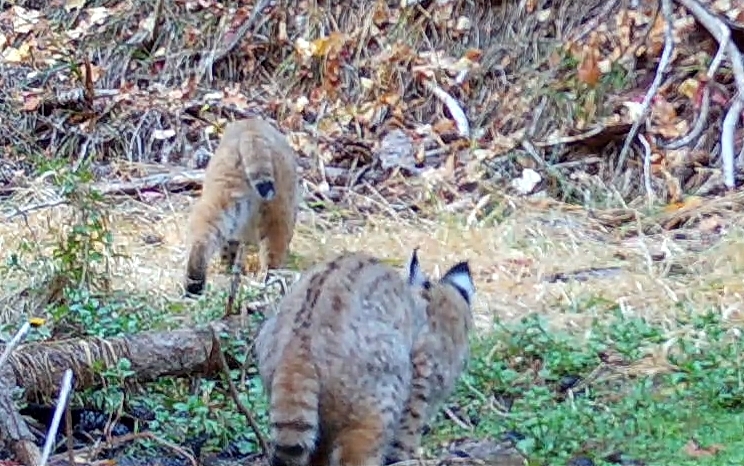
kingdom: Animalia
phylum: Chordata
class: Mammalia
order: Carnivora
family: Felidae
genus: Lynx
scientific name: Lynx rufus
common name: Bobcat
